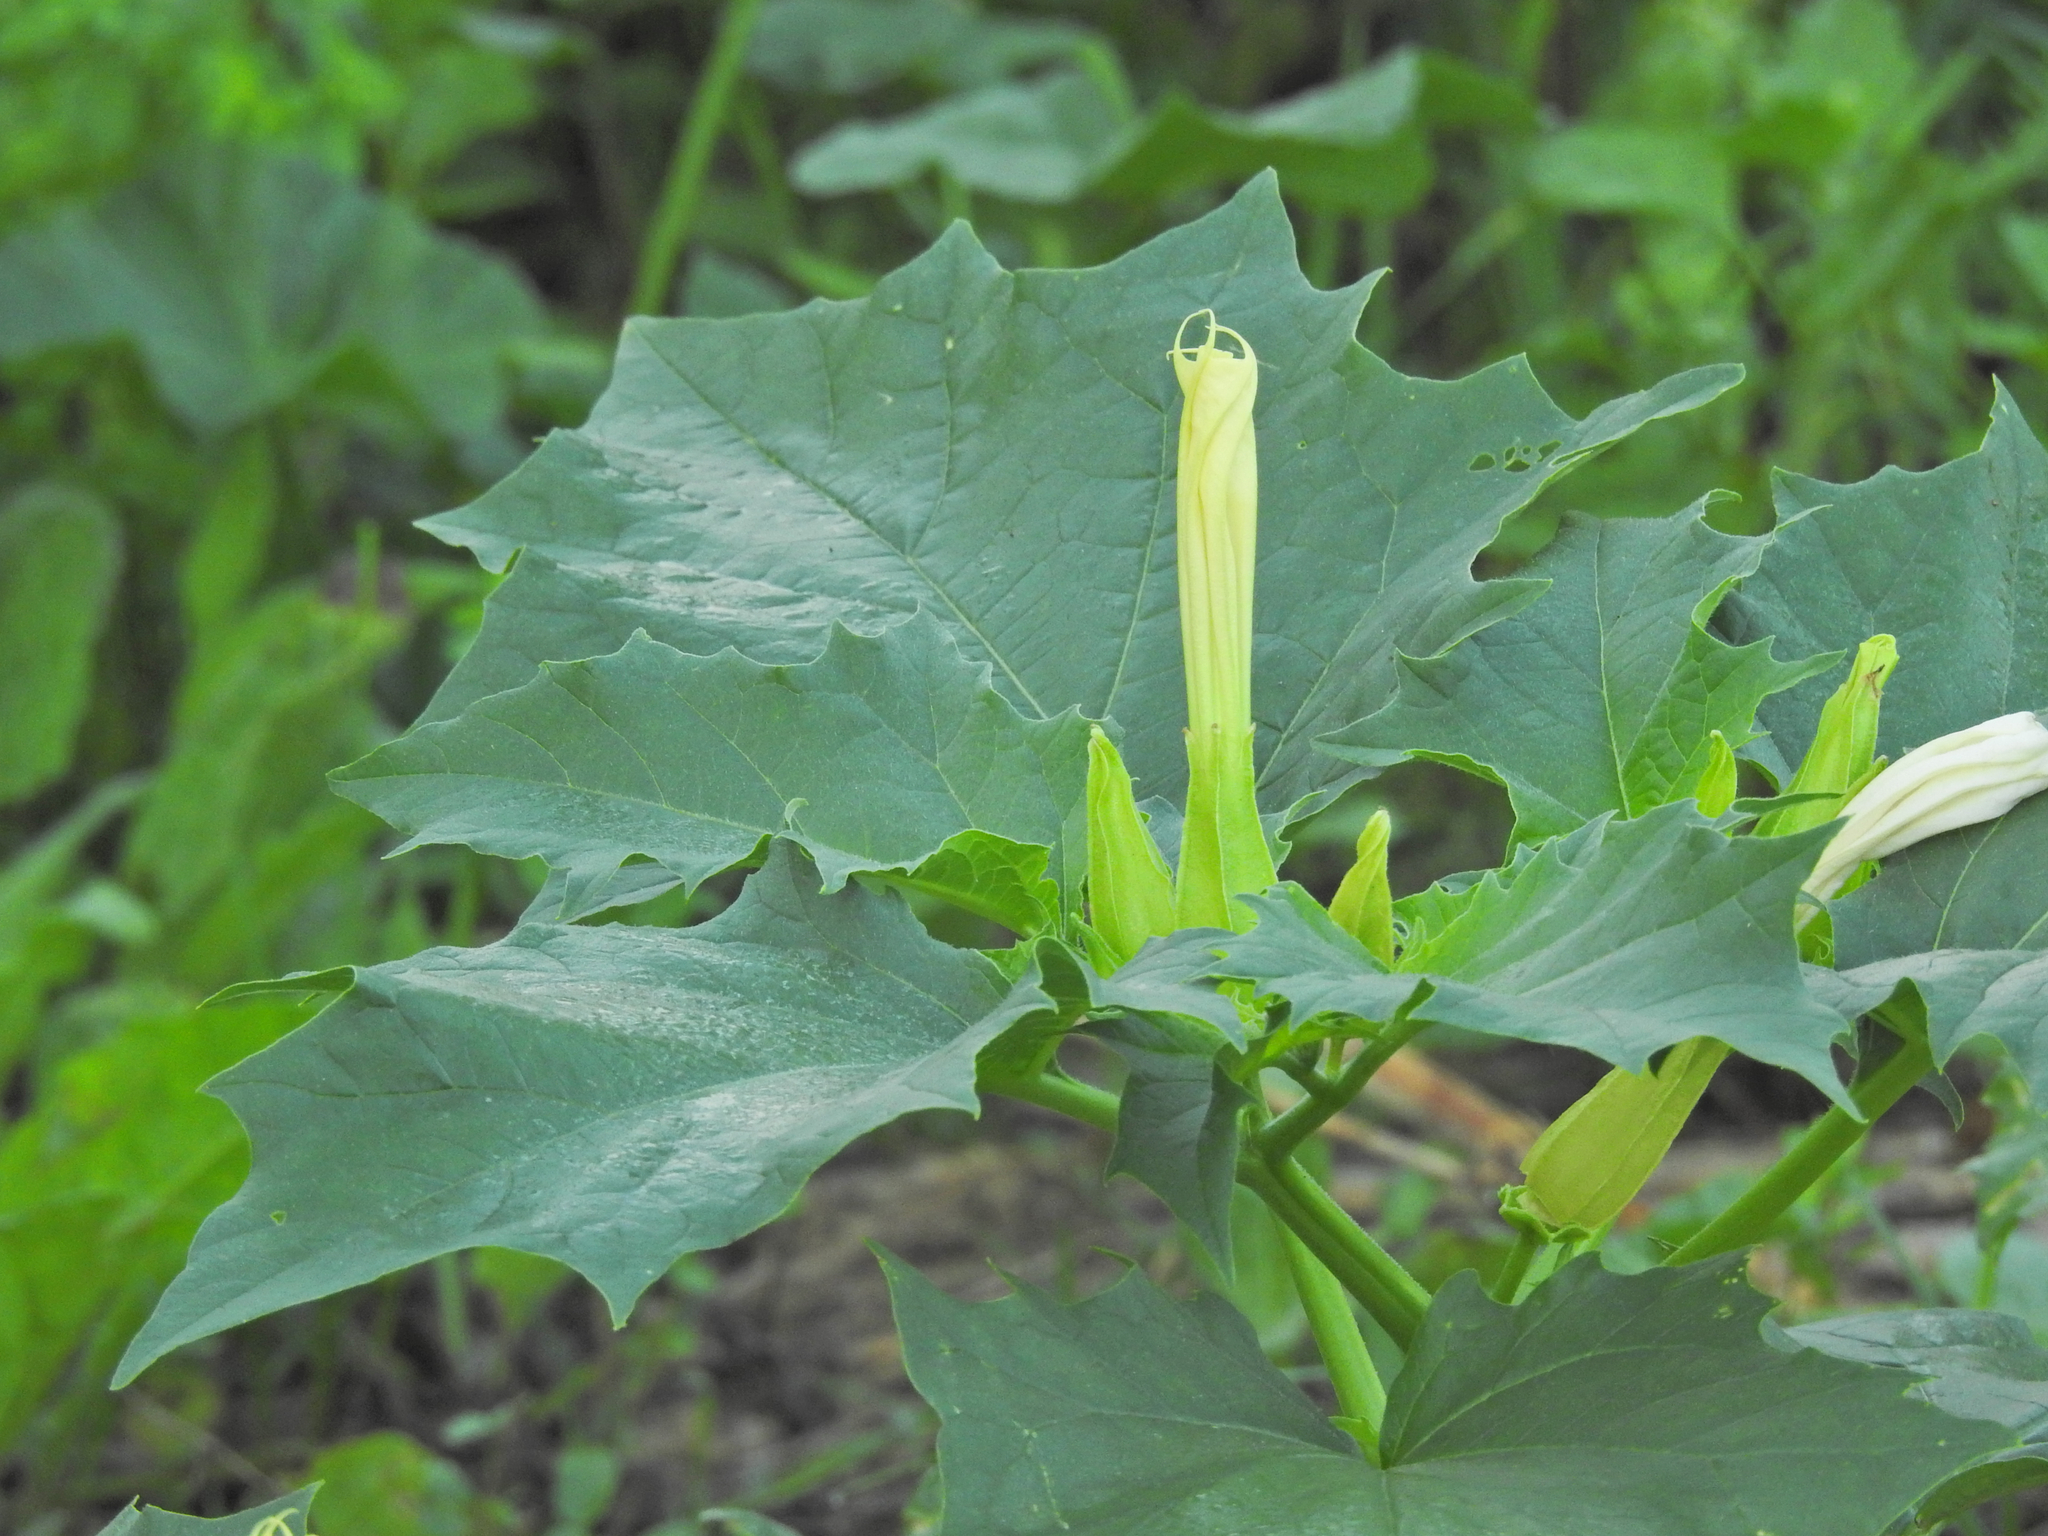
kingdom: Plantae
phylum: Tracheophyta
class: Magnoliopsida
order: Solanales
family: Solanaceae
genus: Datura
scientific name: Datura stramonium
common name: Thorn-apple
